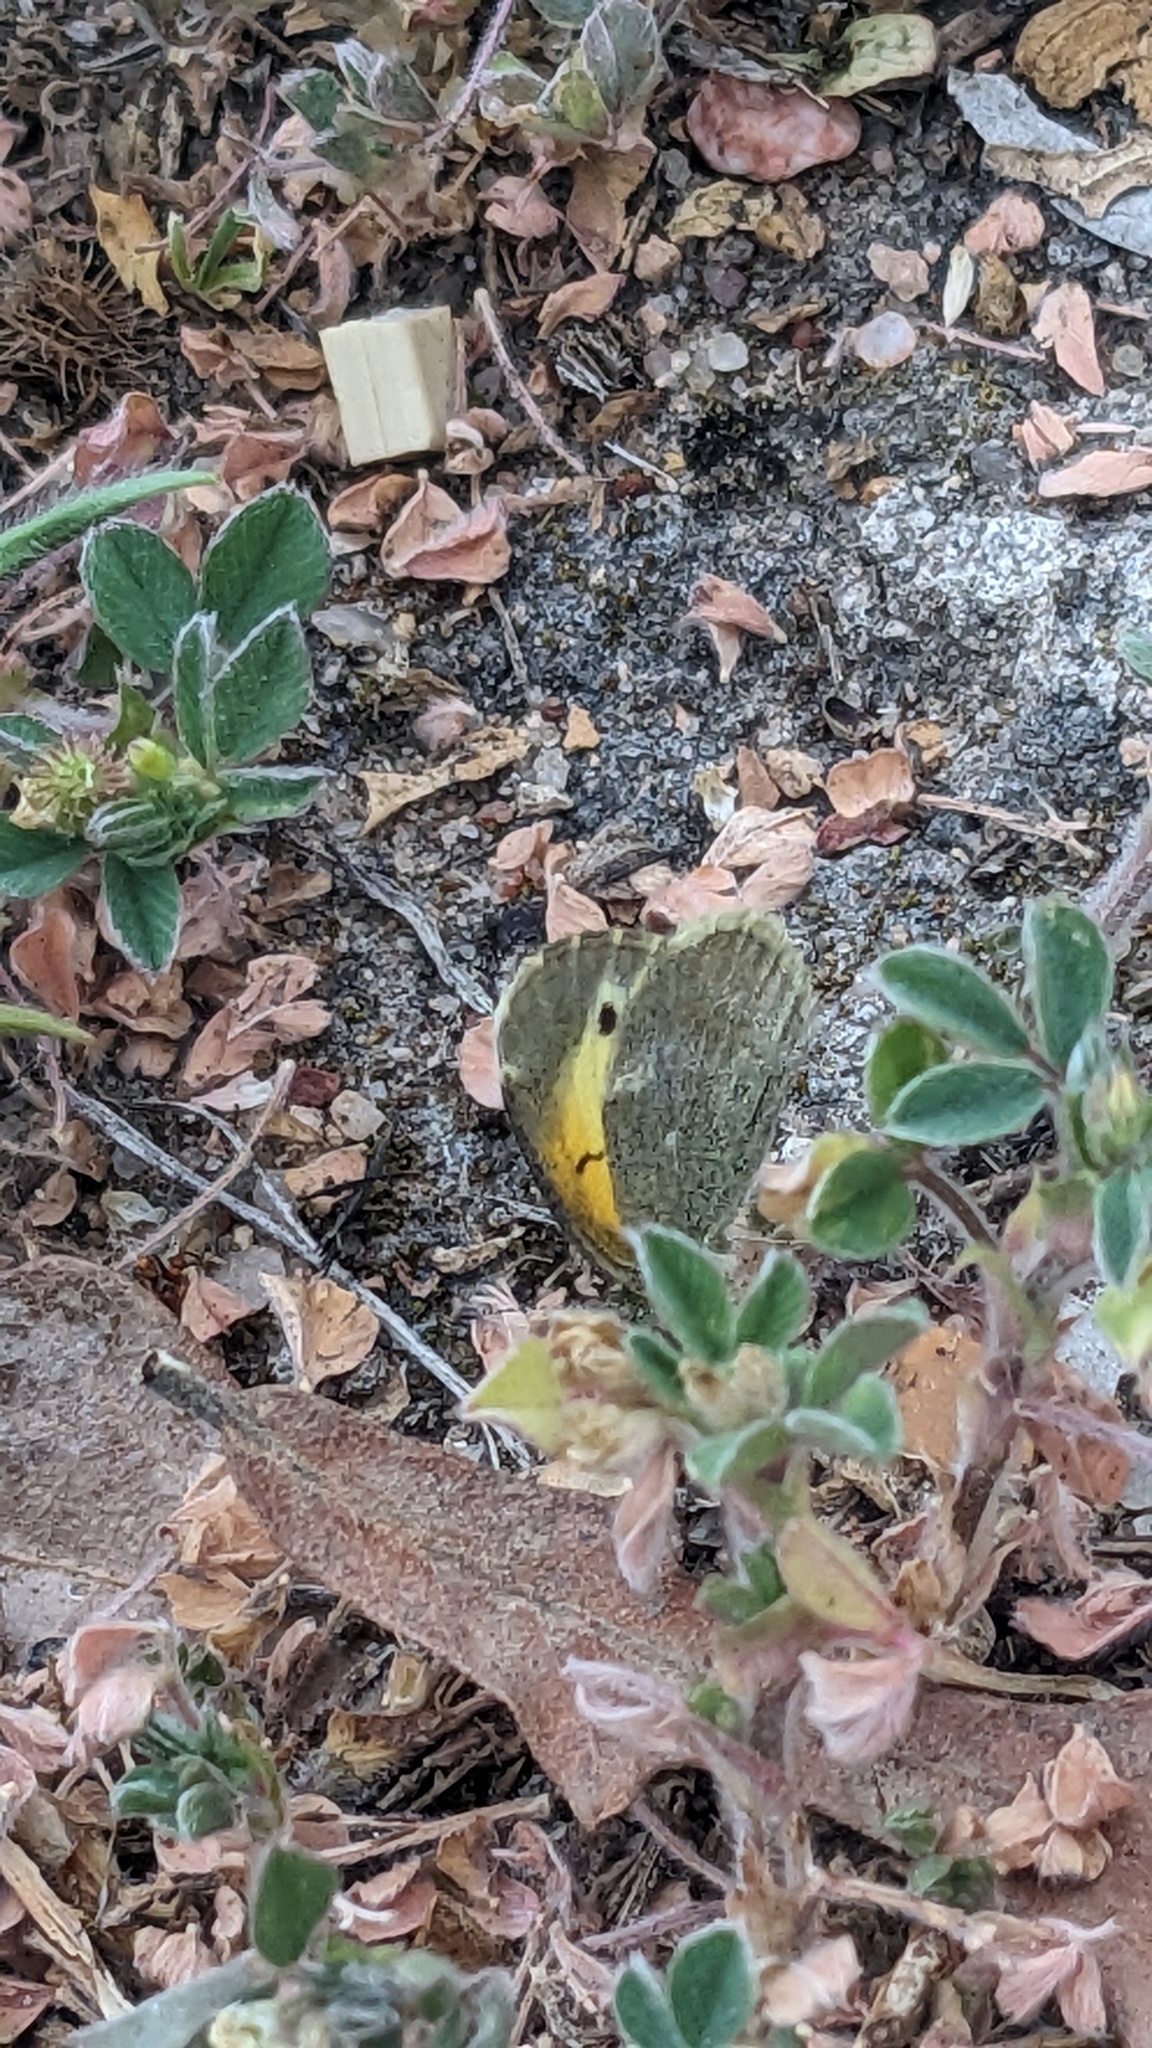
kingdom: Animalia
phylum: Arthropoda
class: Insecta
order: Lepidoptera
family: Pieridae
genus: Nathalis
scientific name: Nathalis iole
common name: Dainty sulphur
